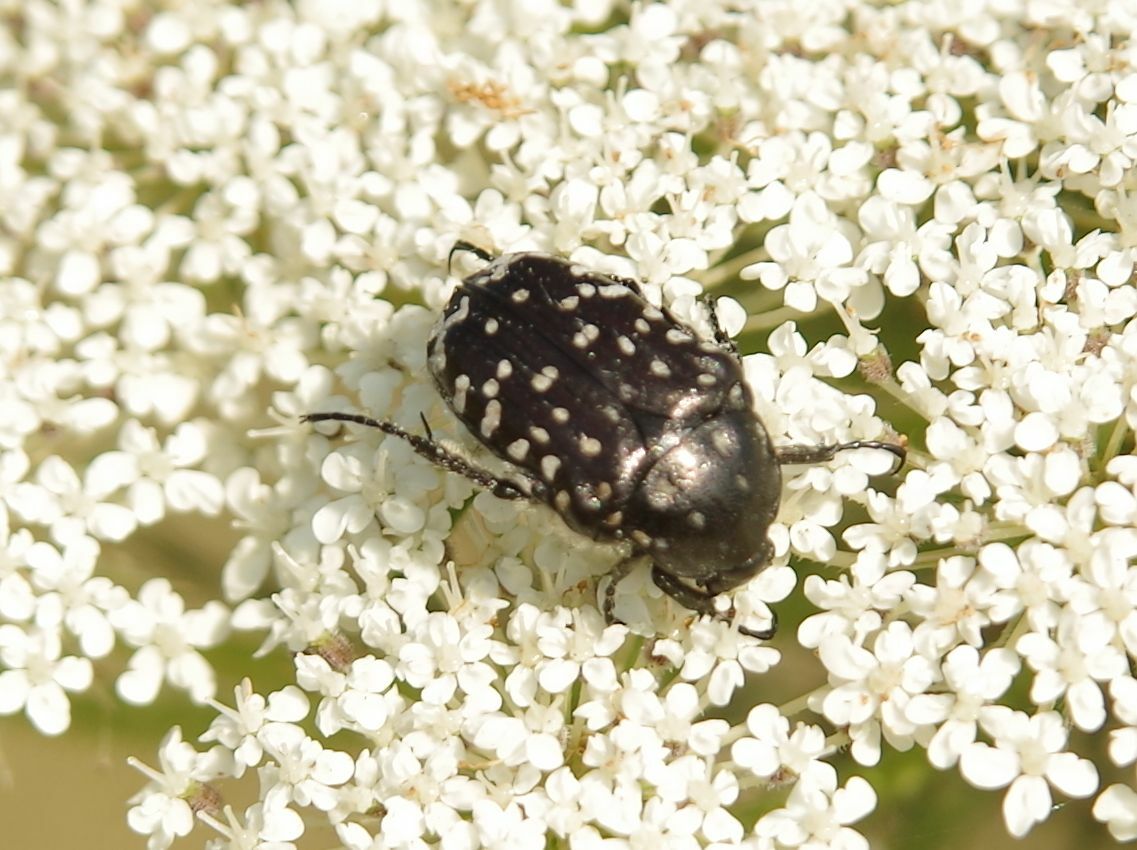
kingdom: Animalia
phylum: Arthropoda
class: Insecta
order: Coleoptera
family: Scarabaeidae
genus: Oxythyrea
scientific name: Oxythyrea funesta
